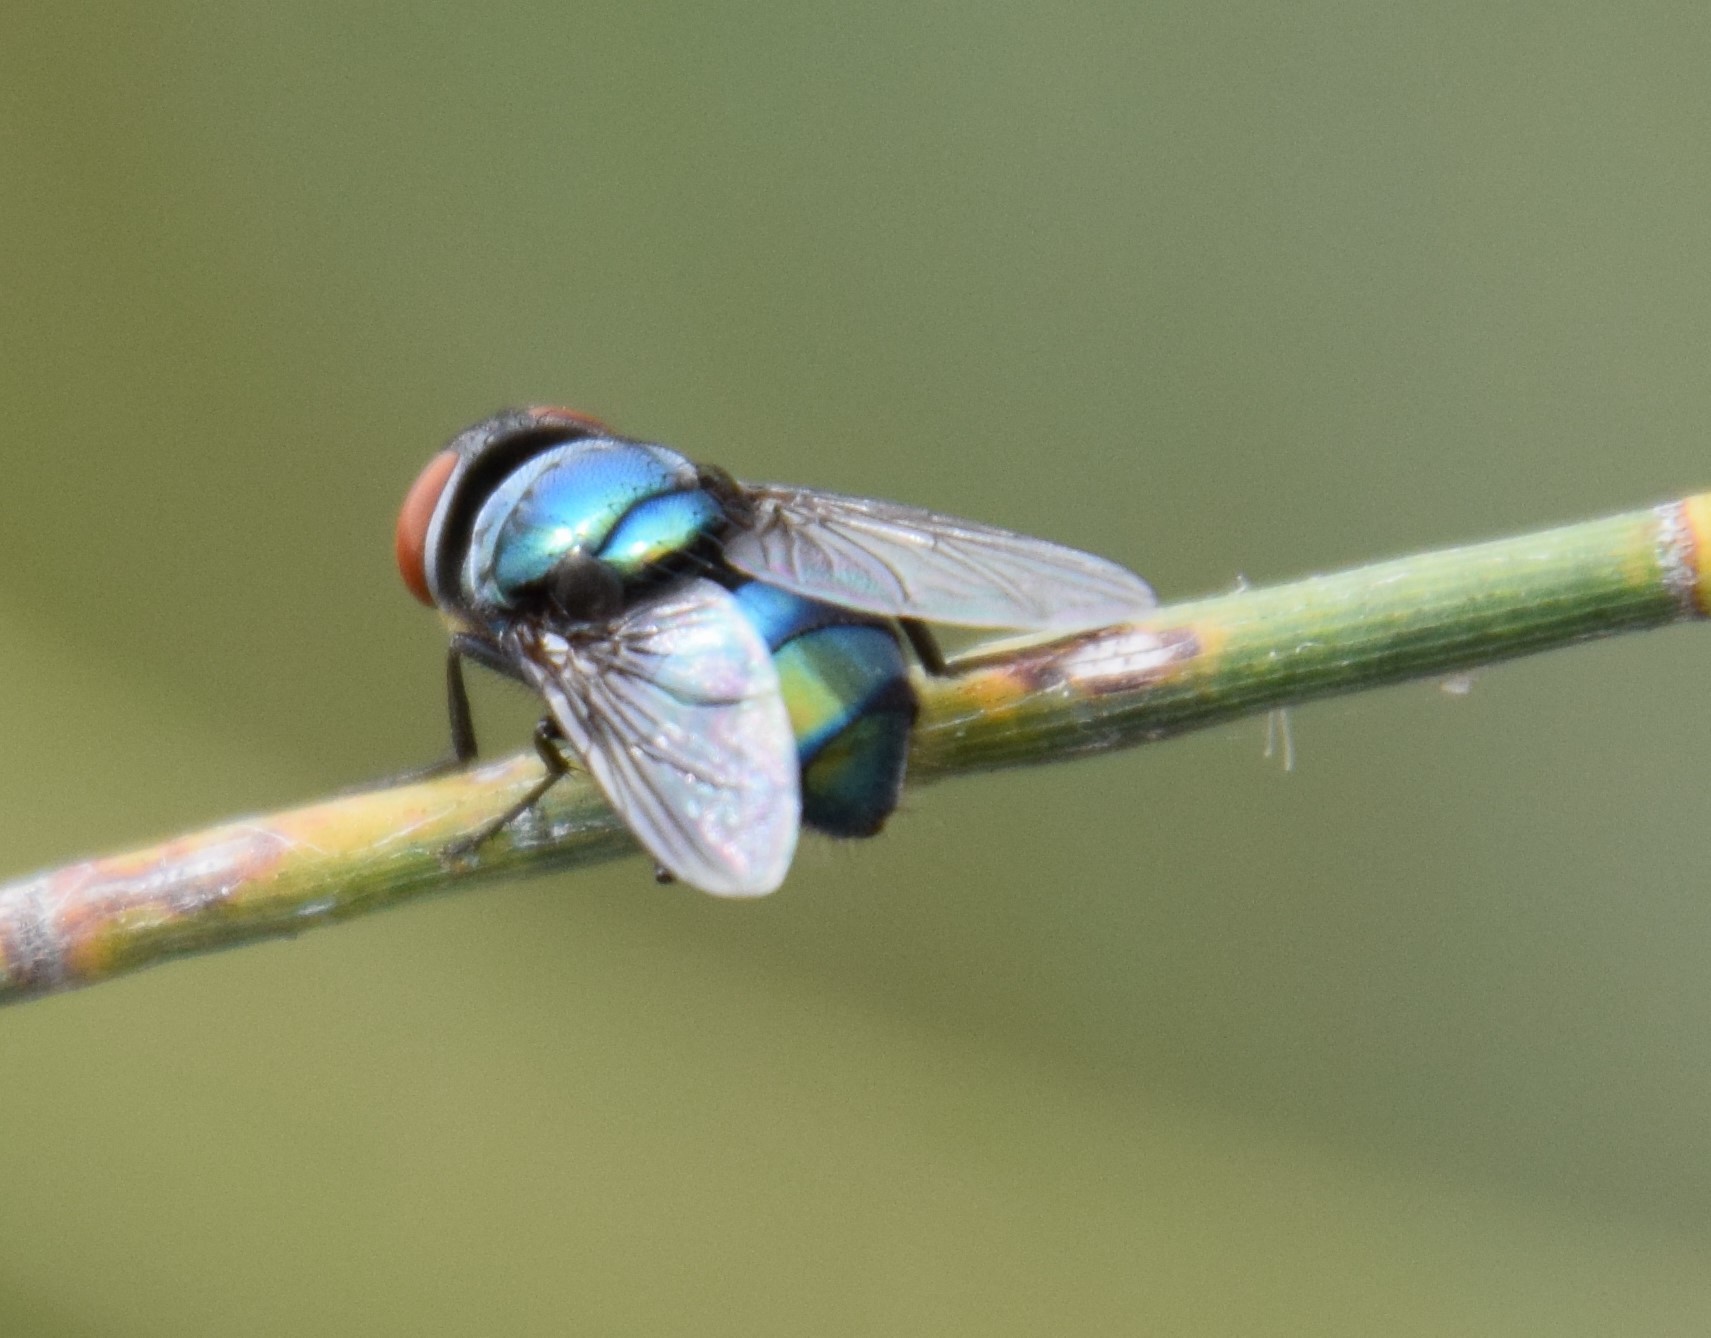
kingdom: Animalia
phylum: Arthropoda
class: Insecta
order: Diptera
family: Calliphoridae
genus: Chrysomya
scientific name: Chrysomya megacephala
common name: Blow fly
